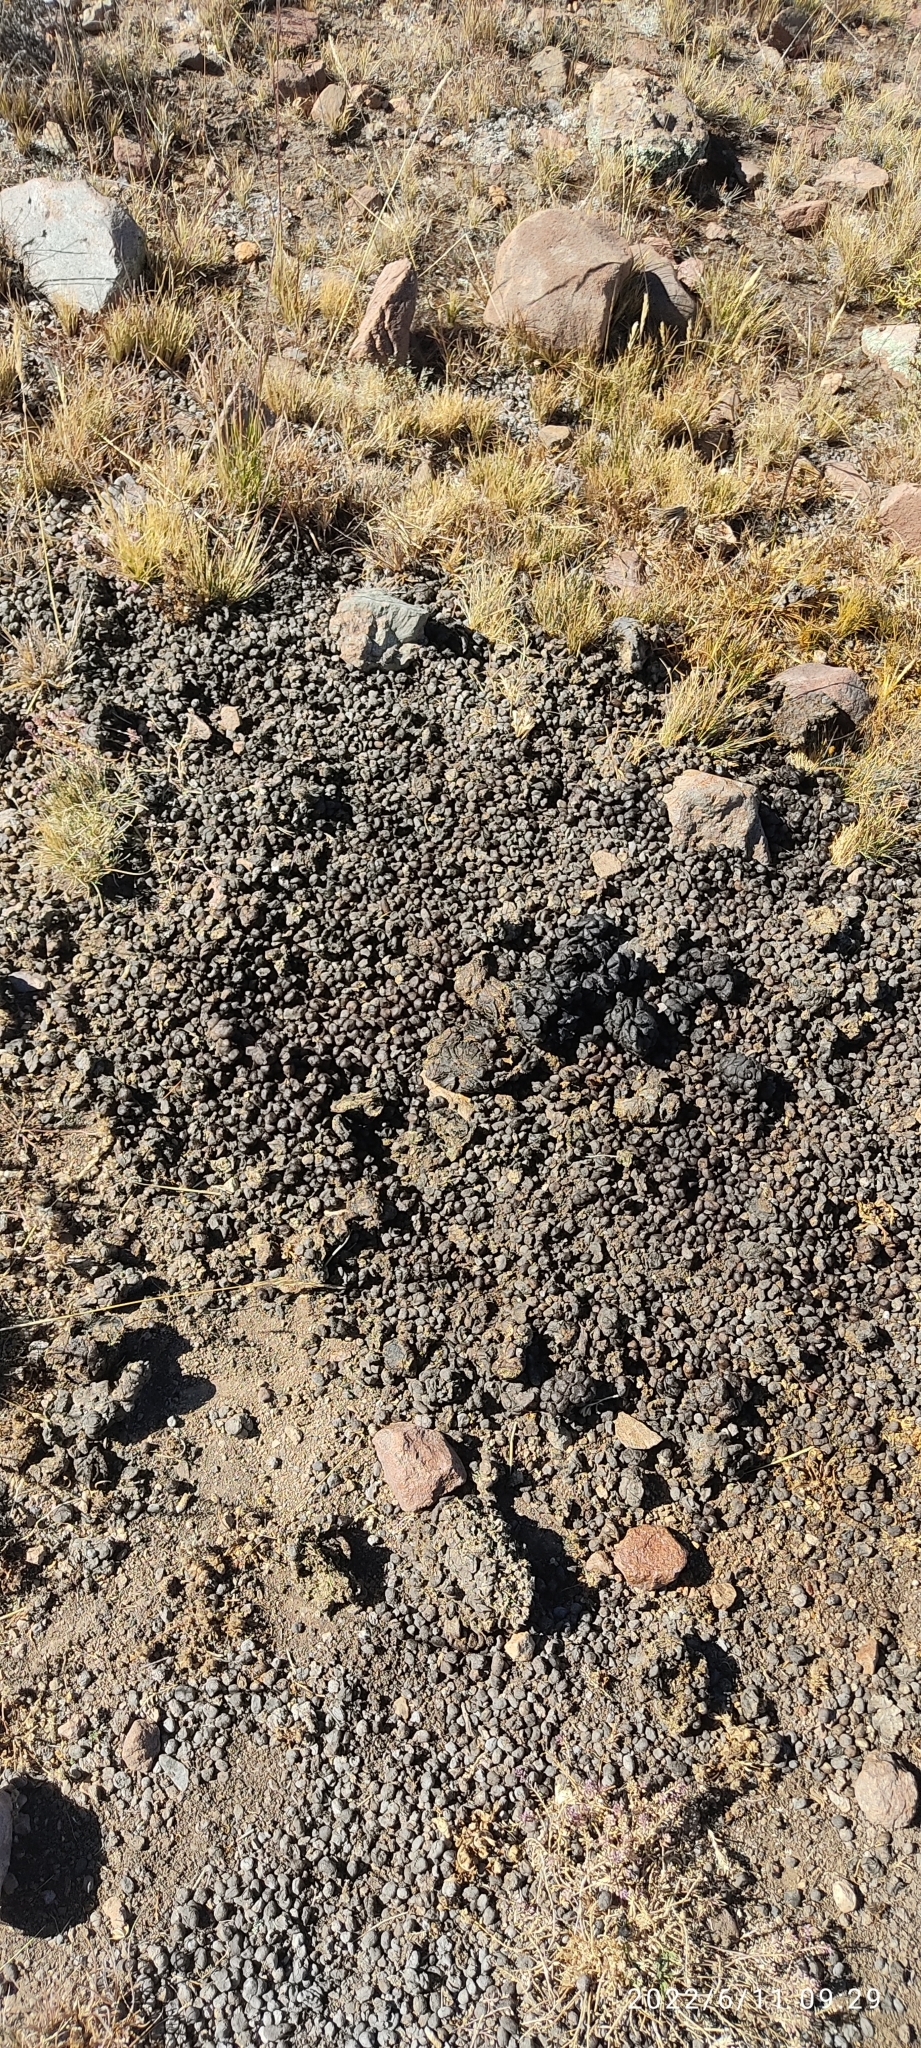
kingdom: Animalia
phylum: Chordata
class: Mammalia
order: Artiodactyla
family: Camelidae
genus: Vicugna
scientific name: Vicugna vicugna
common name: Vicugna
